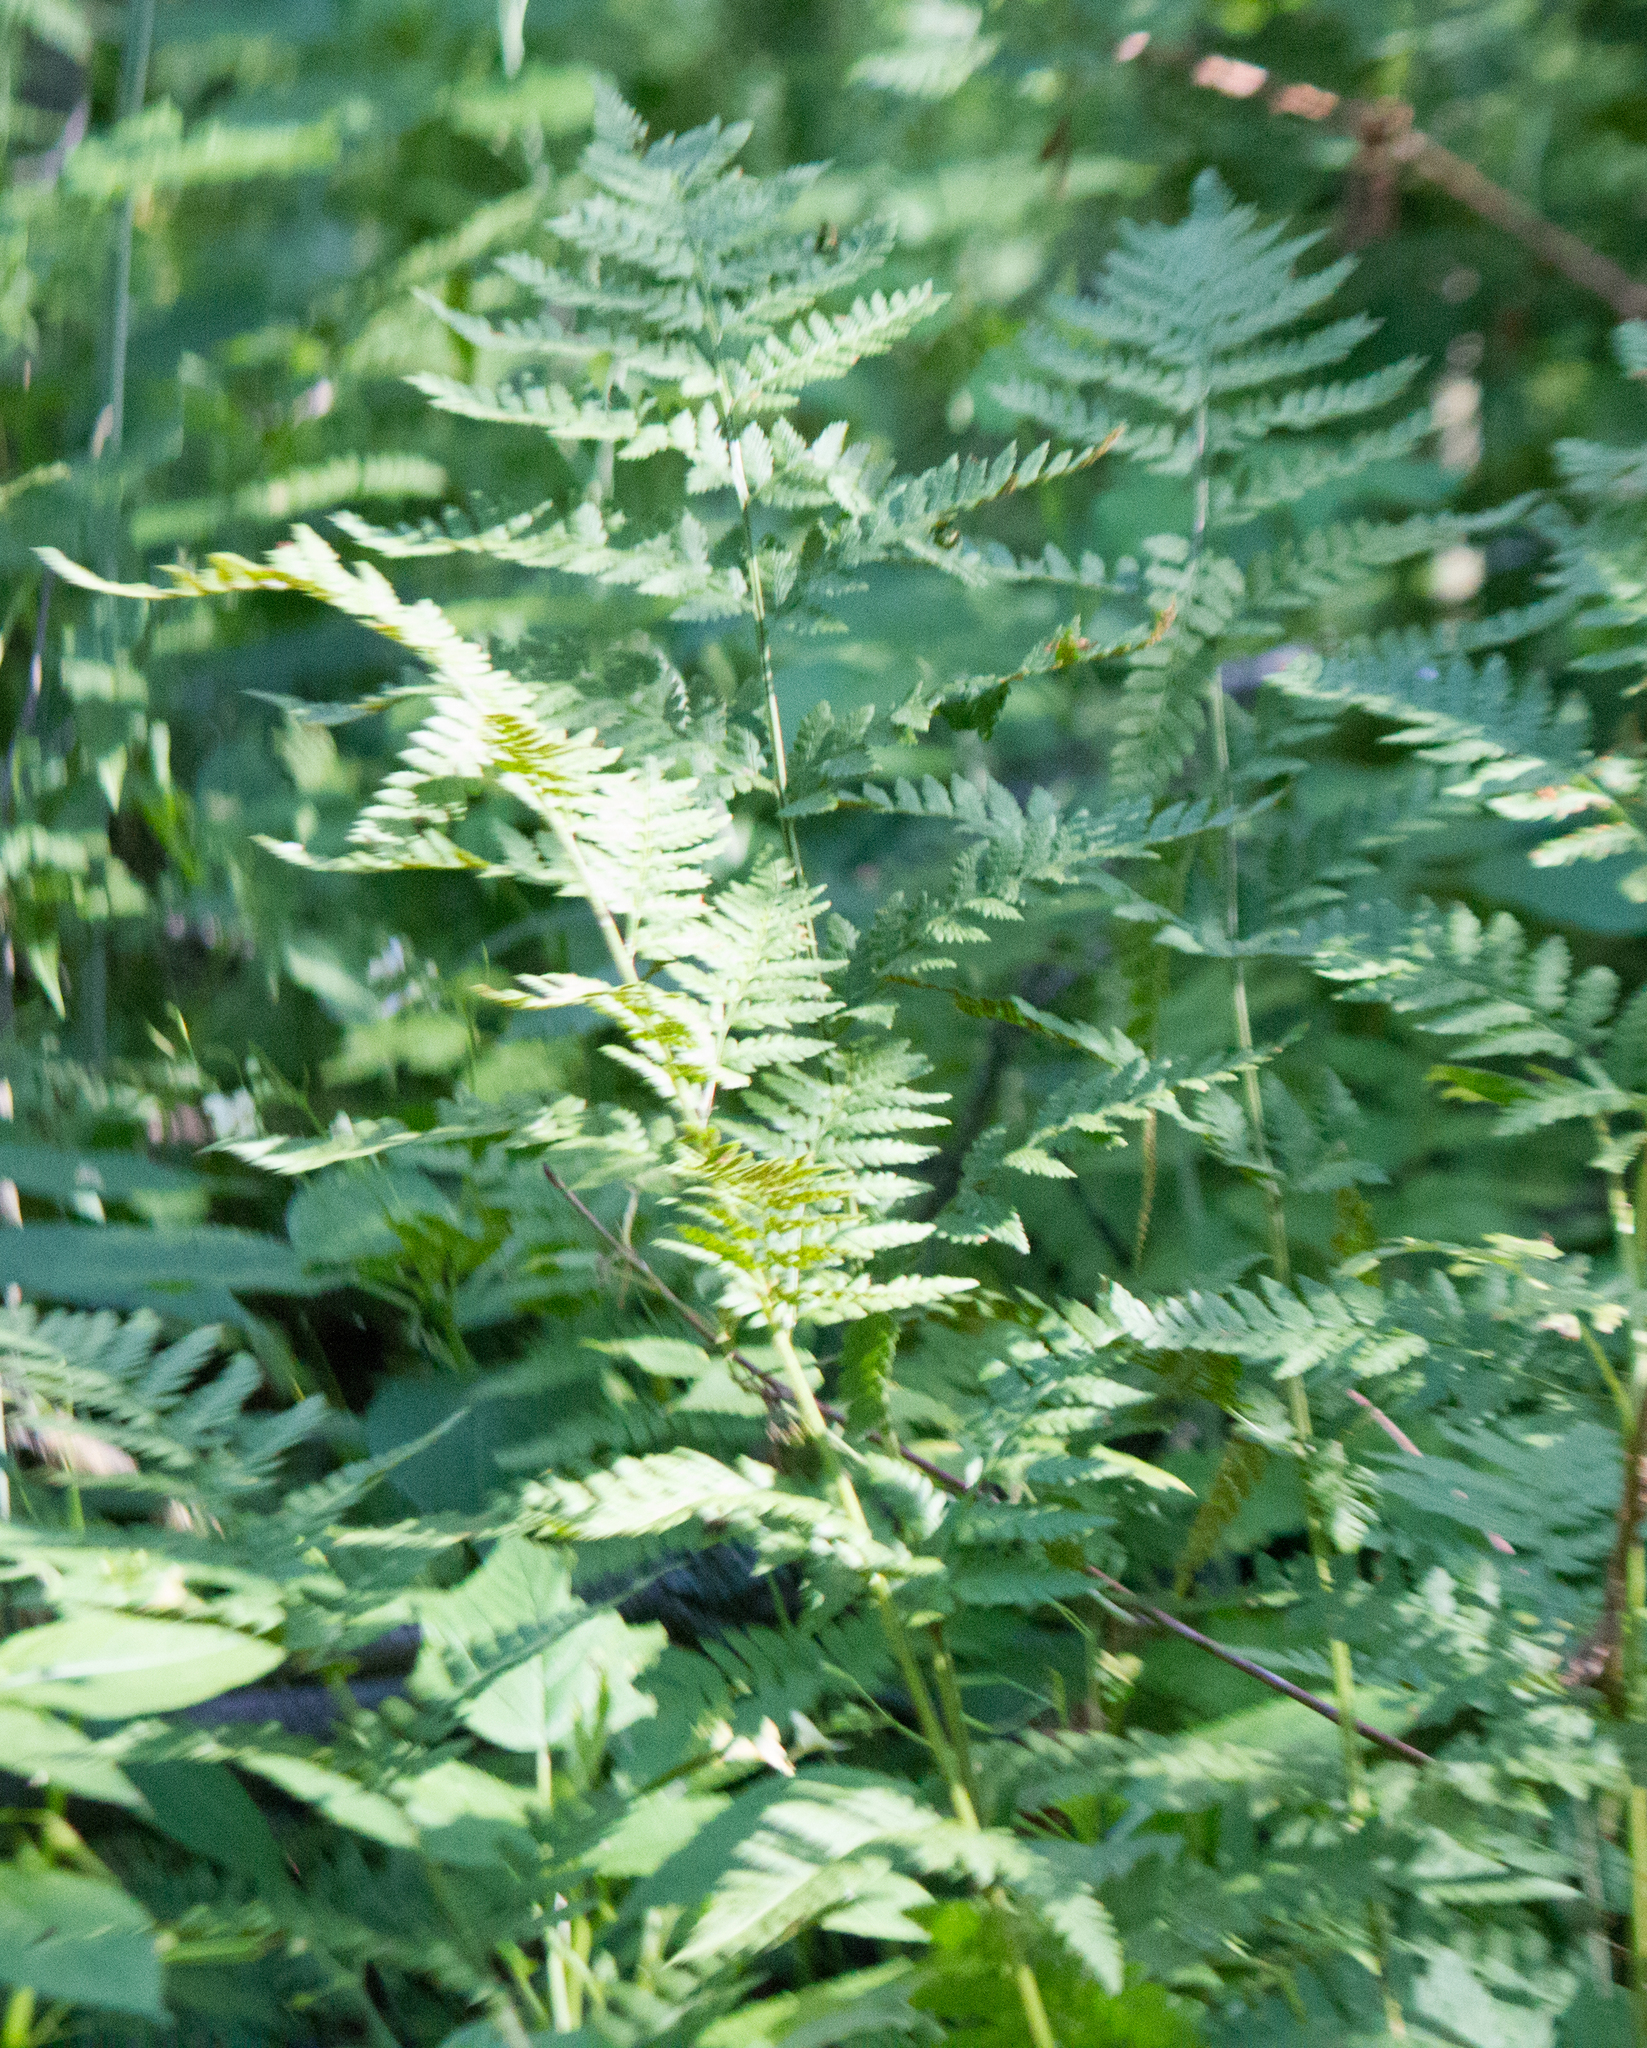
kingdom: Plantae
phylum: Tracheophyta
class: Polypodiopsida
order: Polypodiales
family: Dryopteridaceae
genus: Dryopteris
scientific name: Dryopteris carthusiana
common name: Narrow buckler-fern
